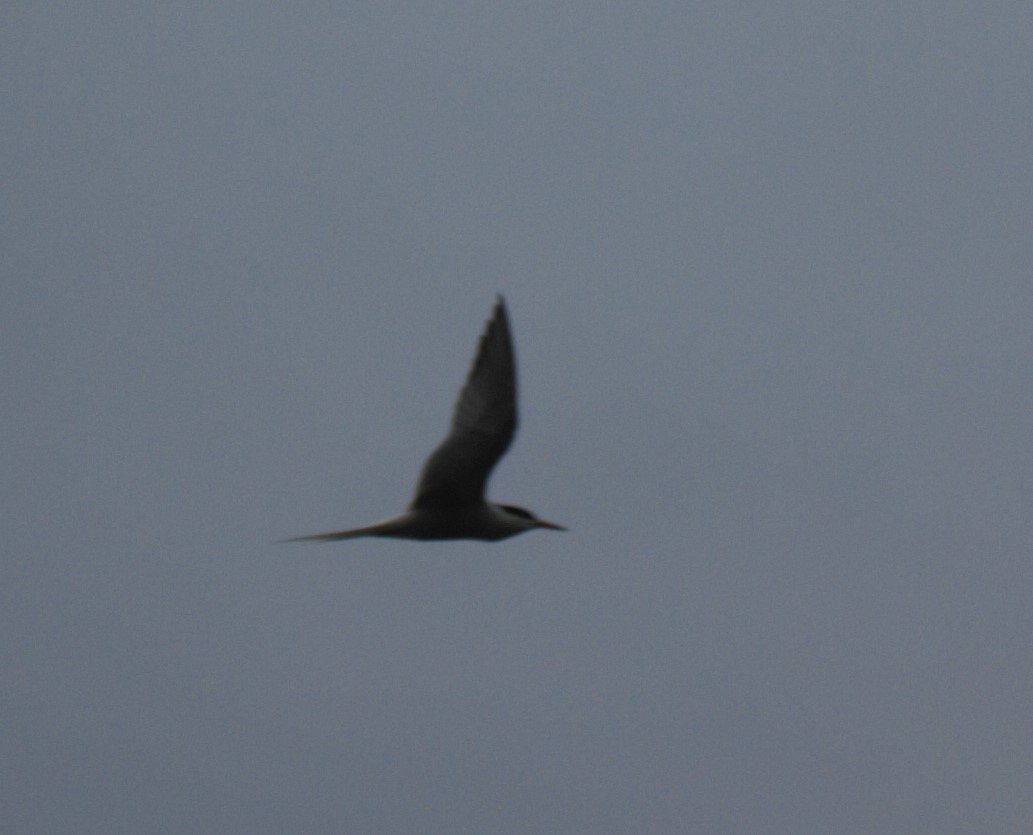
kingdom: Animalia
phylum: Chordata
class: Aves
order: Charadriiformes
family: Laridae
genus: Sterna
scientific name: Sterna hirundo
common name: Common tern
